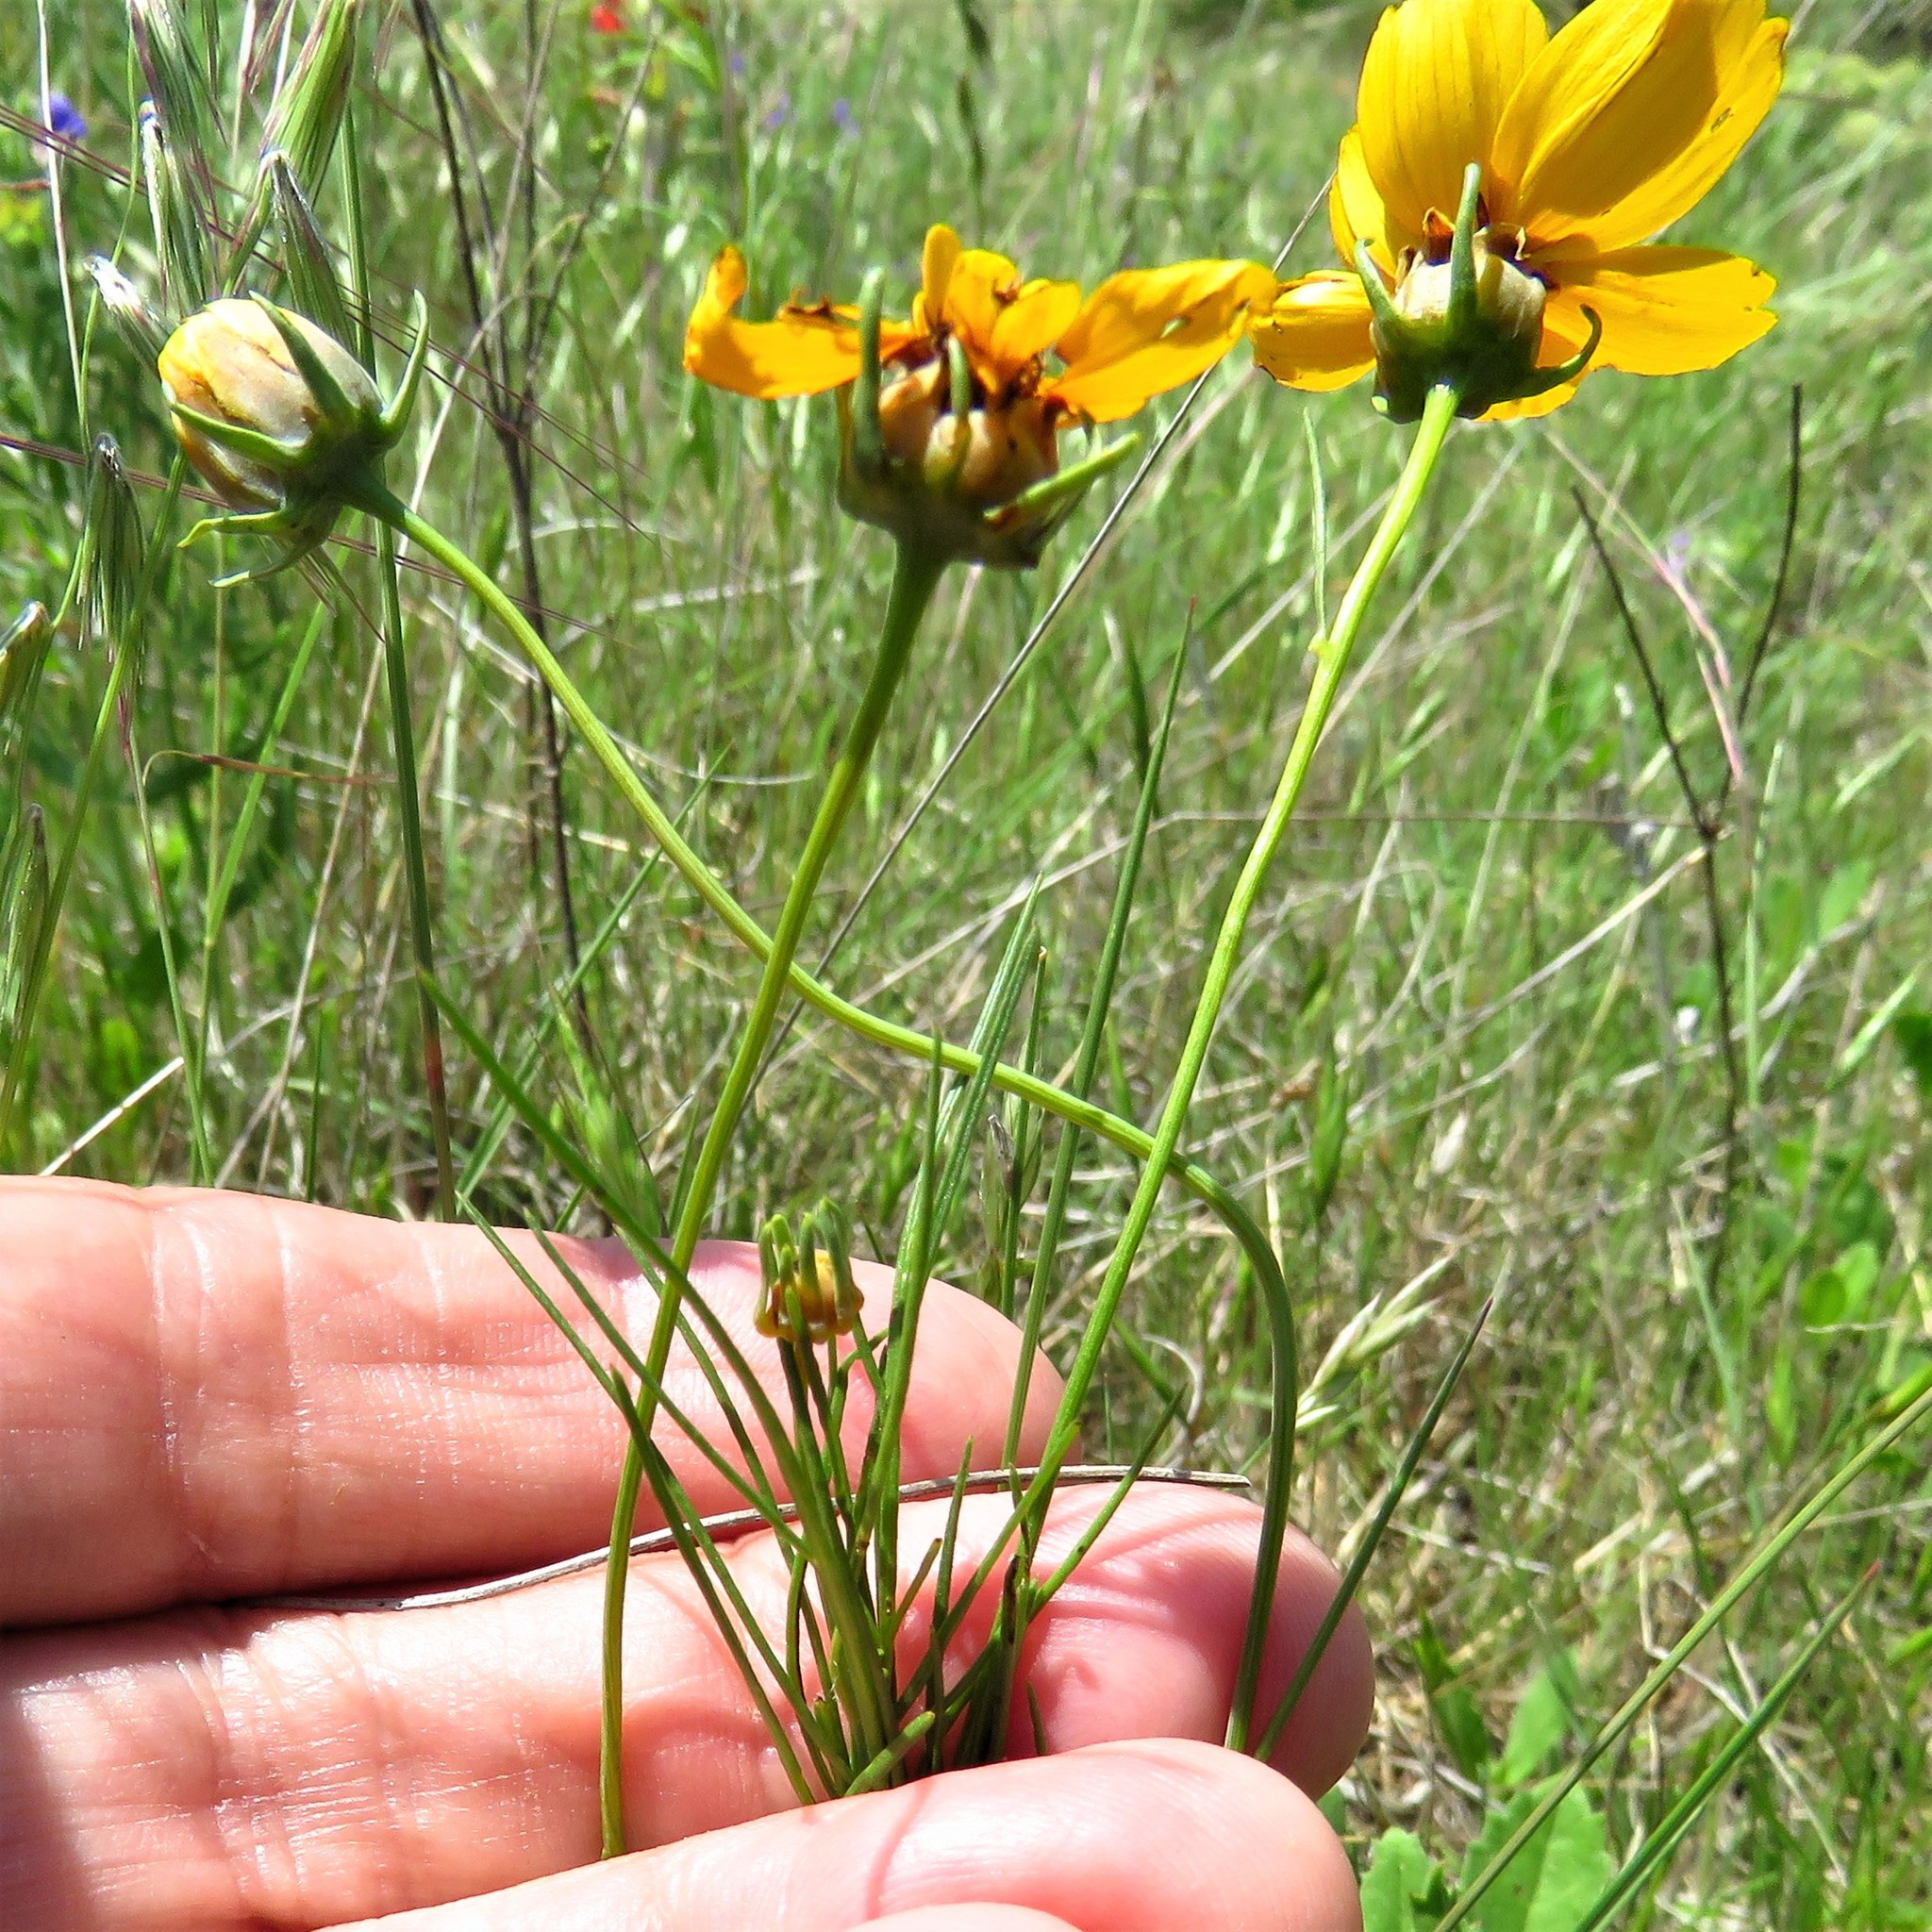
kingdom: Plantae
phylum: Tracheophyta
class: Magnoliopsida
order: Asterales
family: Asteraceae
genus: Thelesperma
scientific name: Thelesperma filifolium
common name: Stiff greenthread
